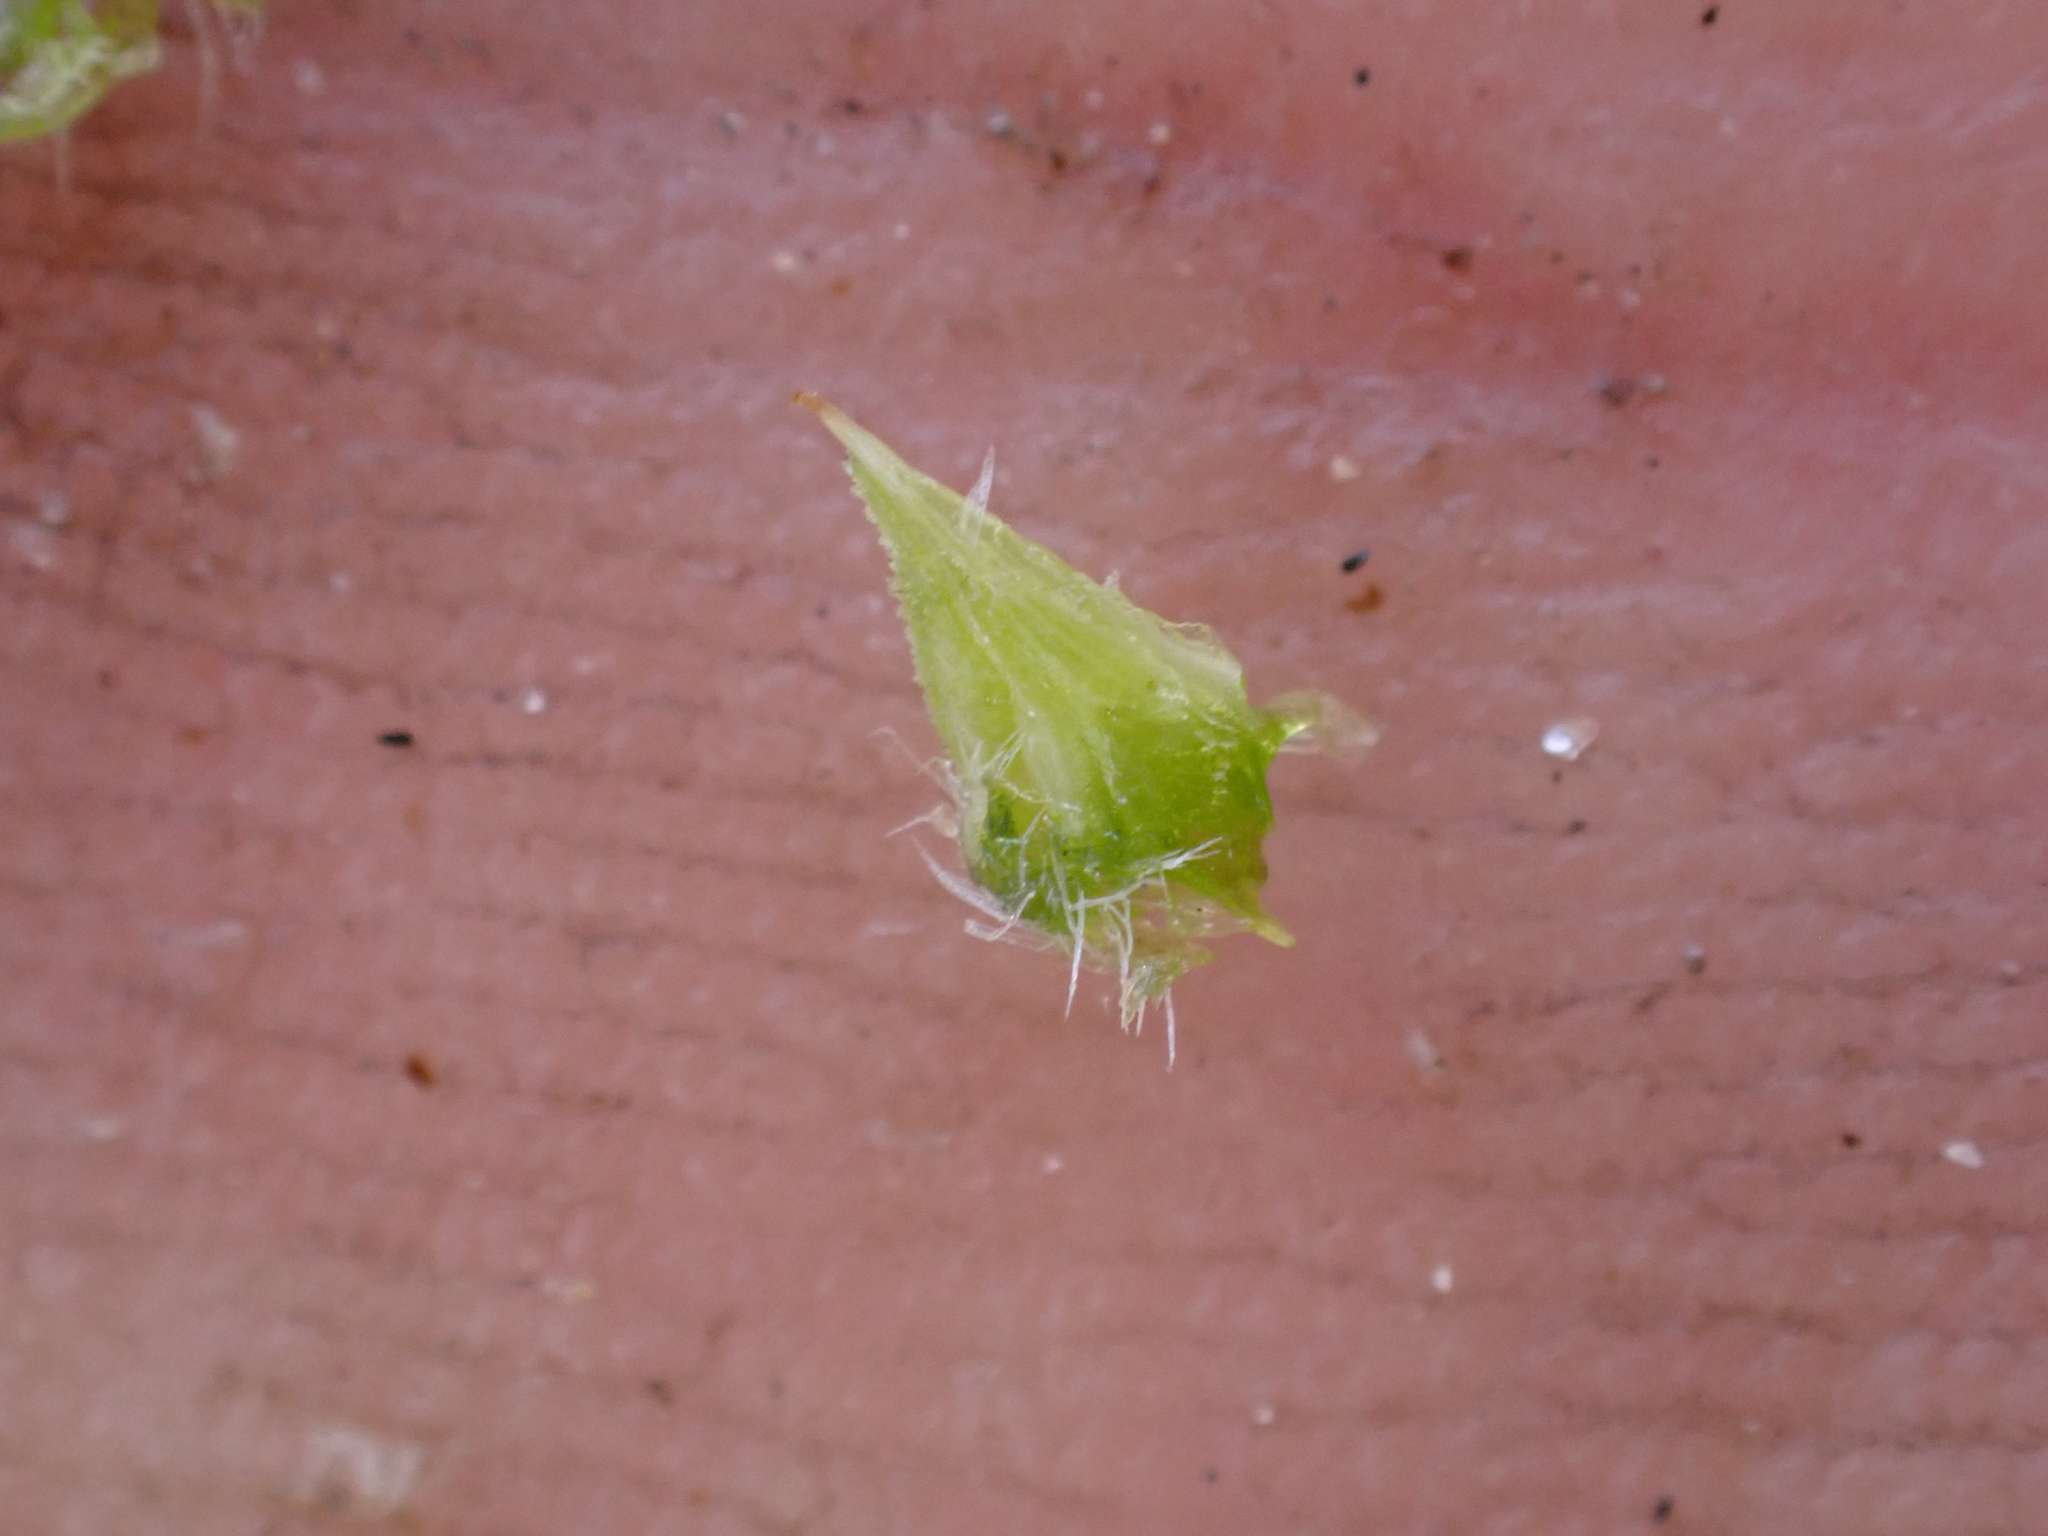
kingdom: Plantae
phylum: Tracheophyta
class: Magnoliopsida
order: Boraginales
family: Boraginaceae
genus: Cryptantha
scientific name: Cryptantha pterocarya
